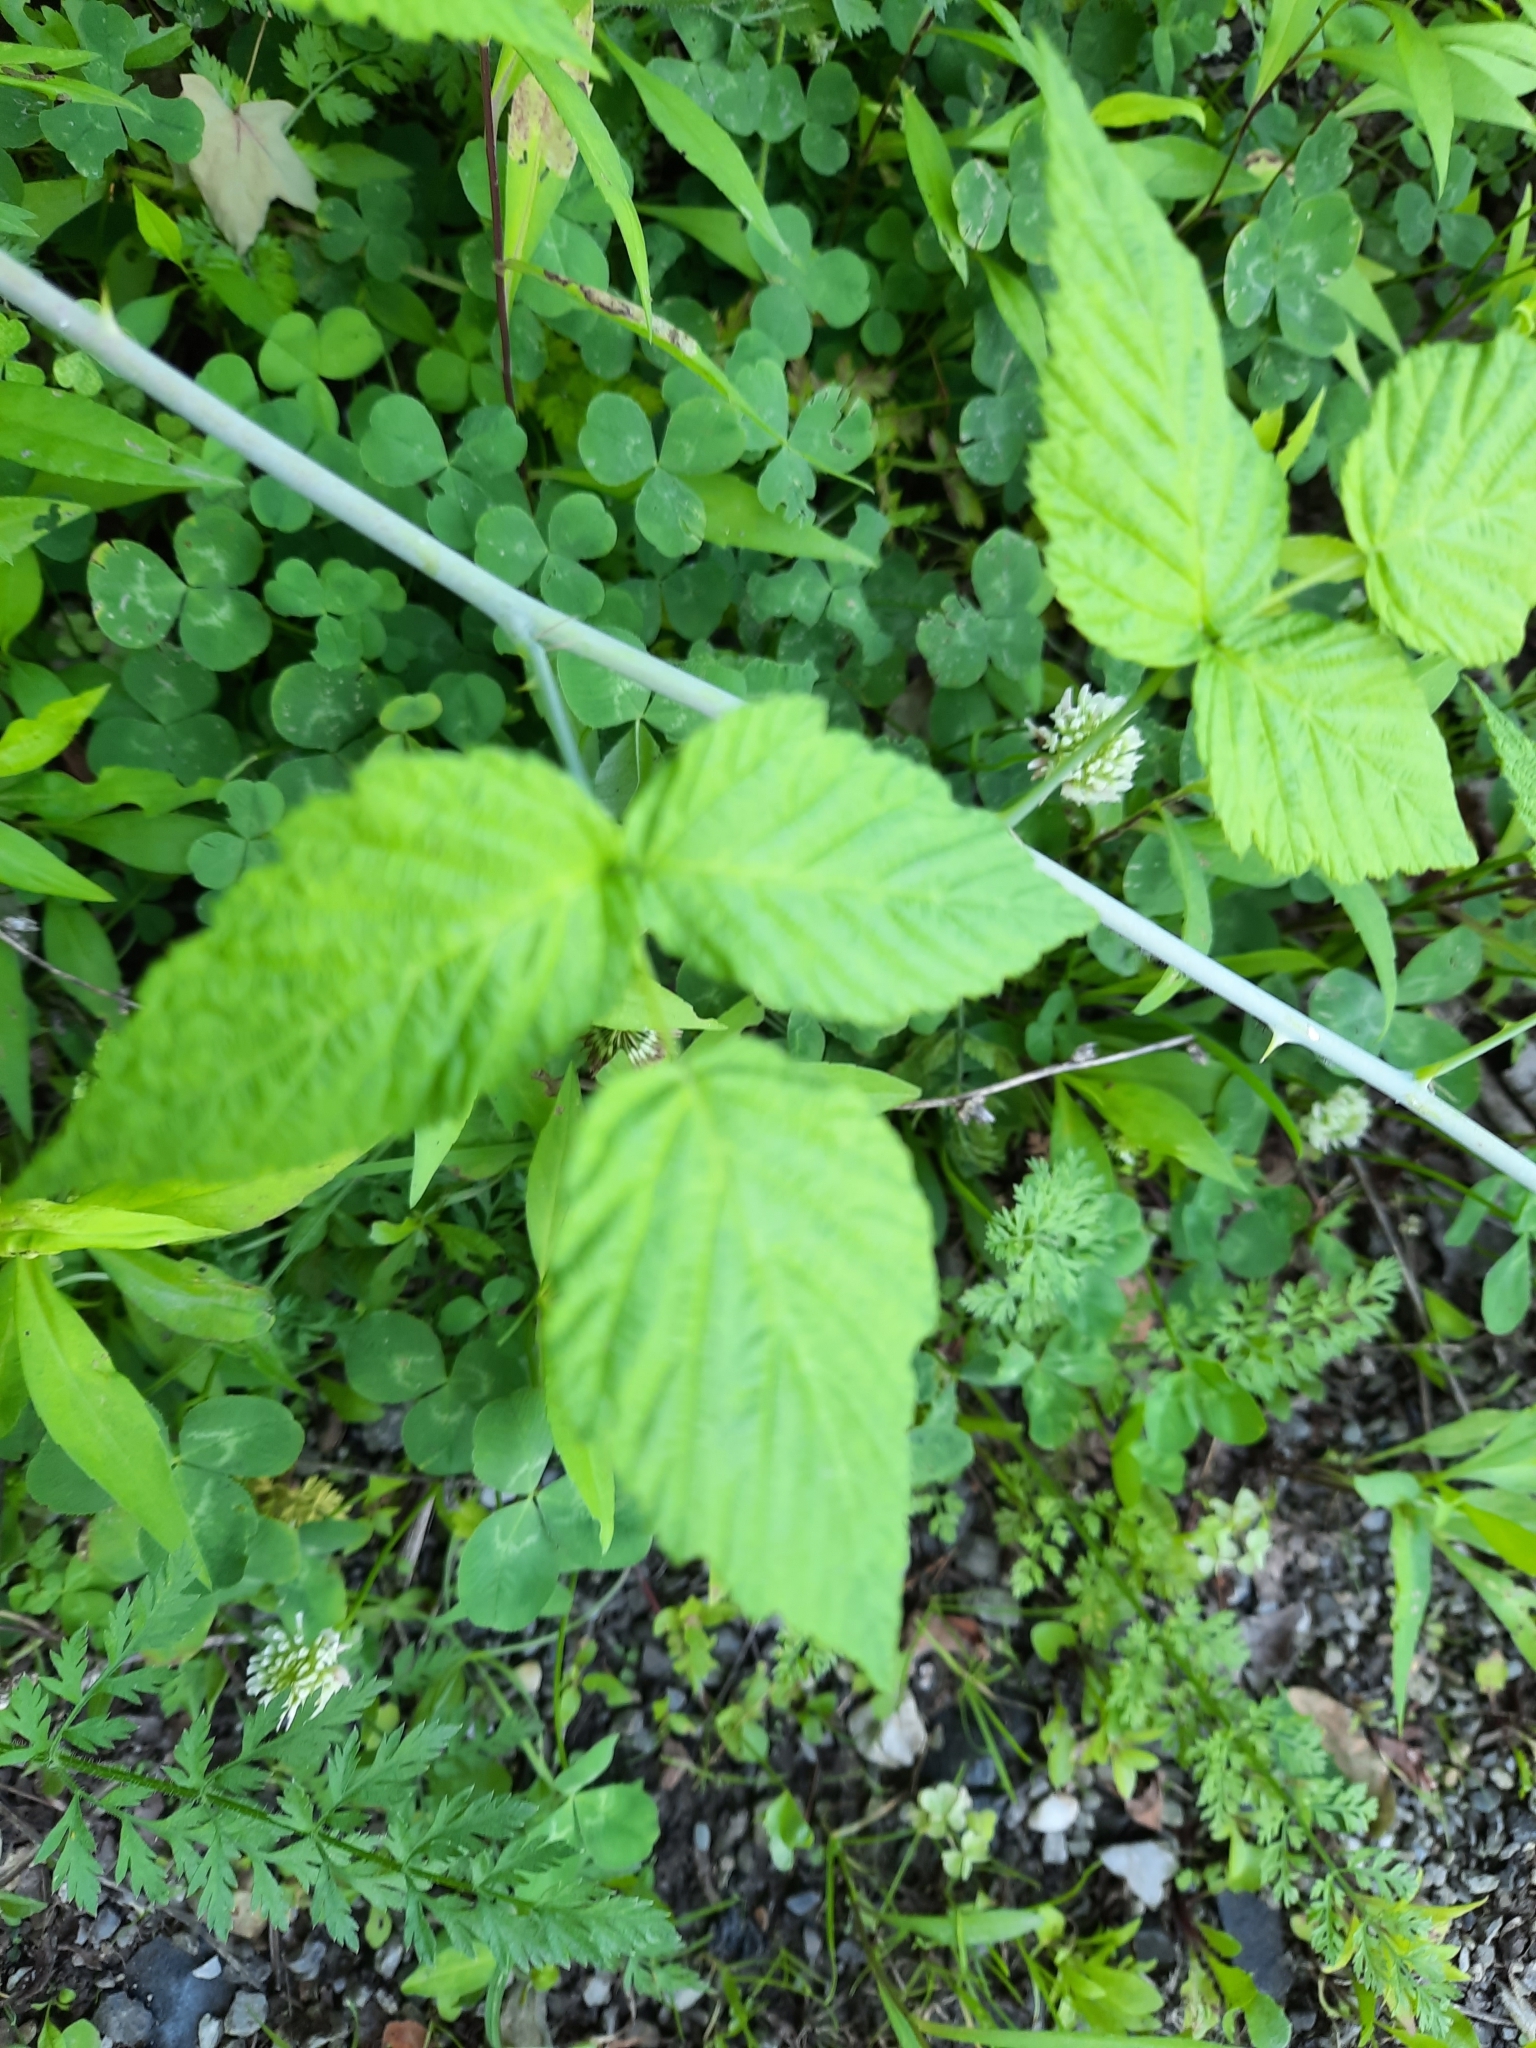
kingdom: Plantae
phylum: Tracheophyta
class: Magnoliopsida
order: Rosales
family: Rosaceae
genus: Rubus
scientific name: Rubus occidentalis
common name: Black raspberry
